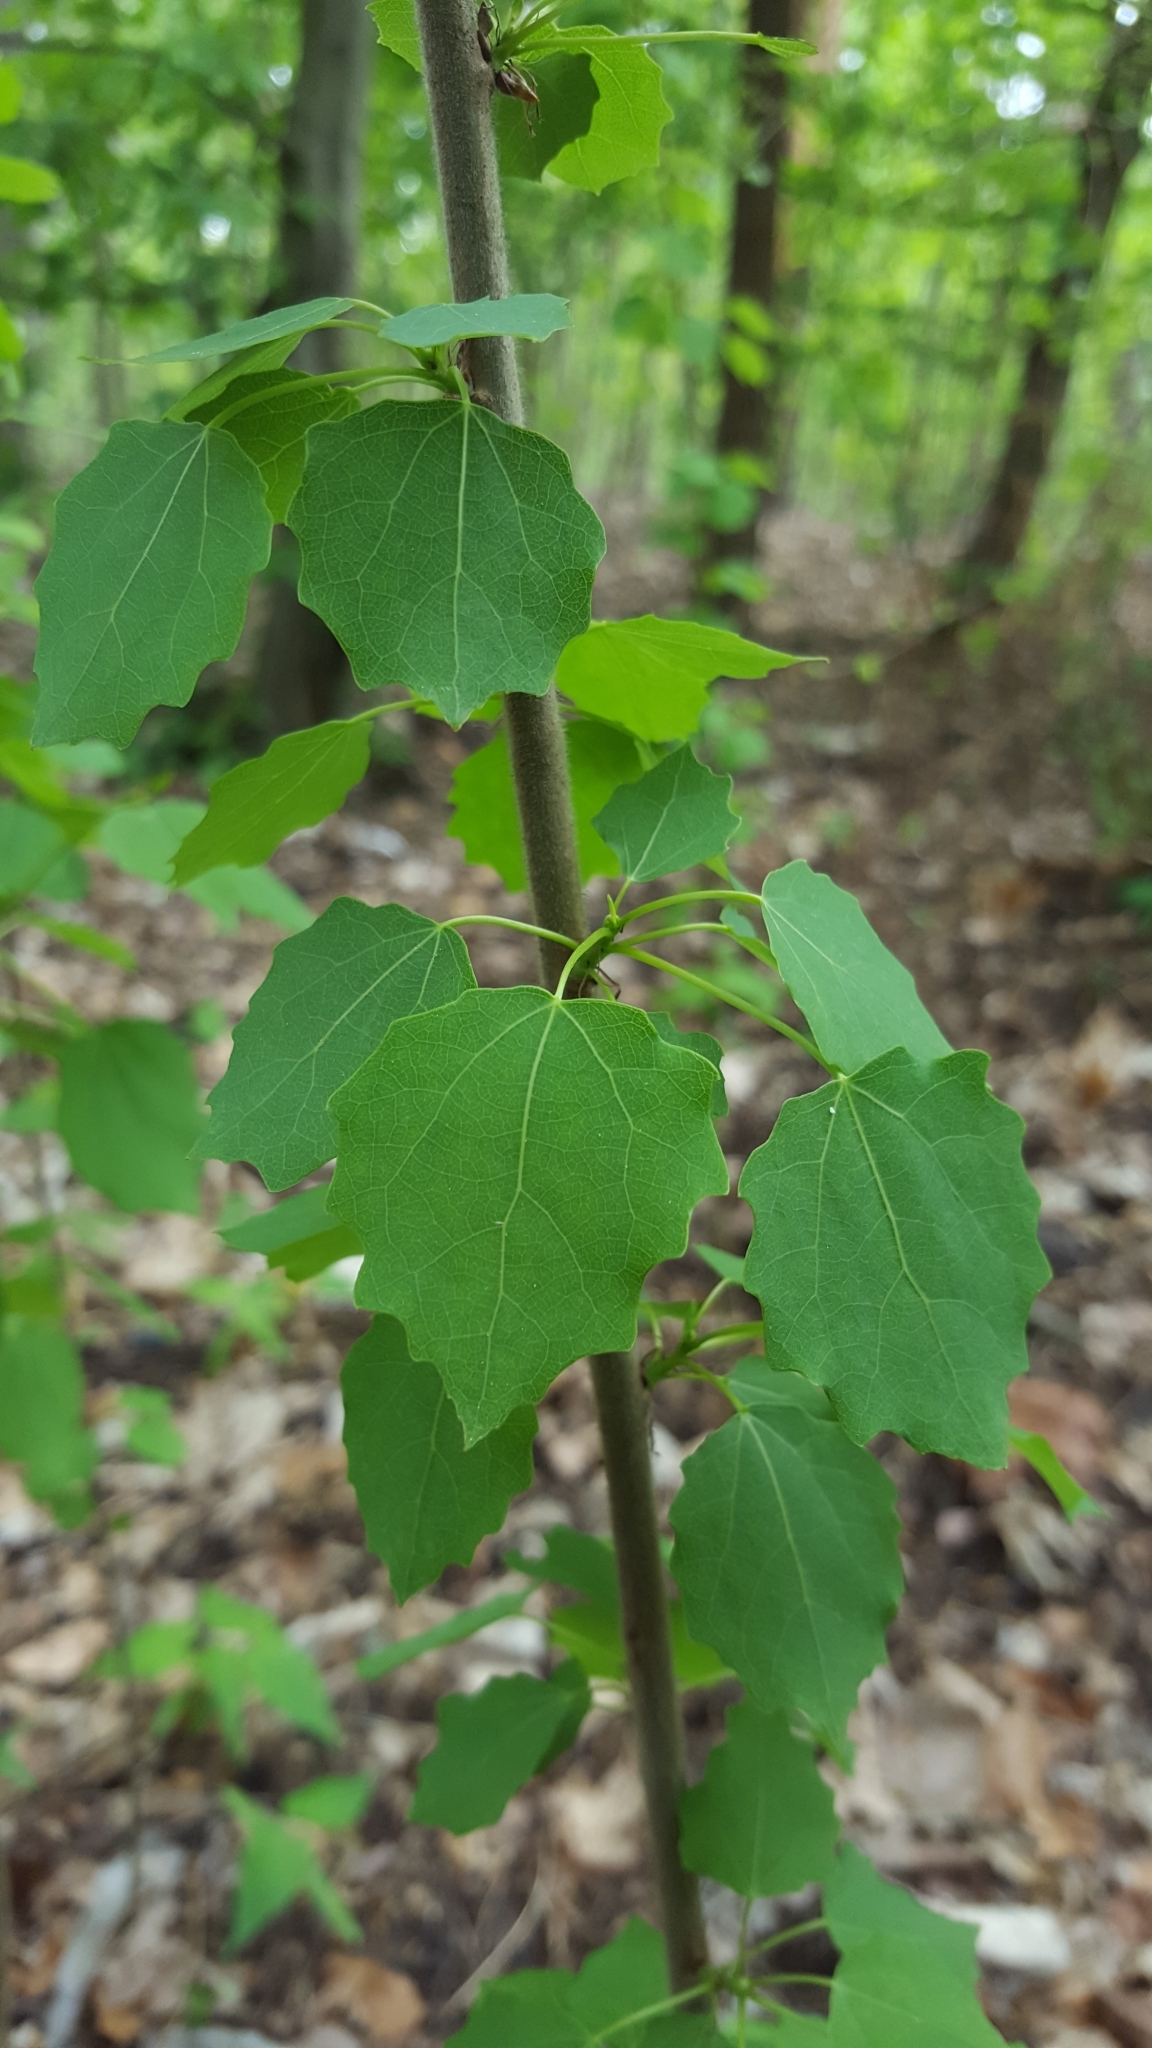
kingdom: Plantae
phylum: Tracheophyta
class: Magnoliopsida
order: Malpighiales
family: Salicaceae
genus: Populus
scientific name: Populus tremula
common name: European aspen
